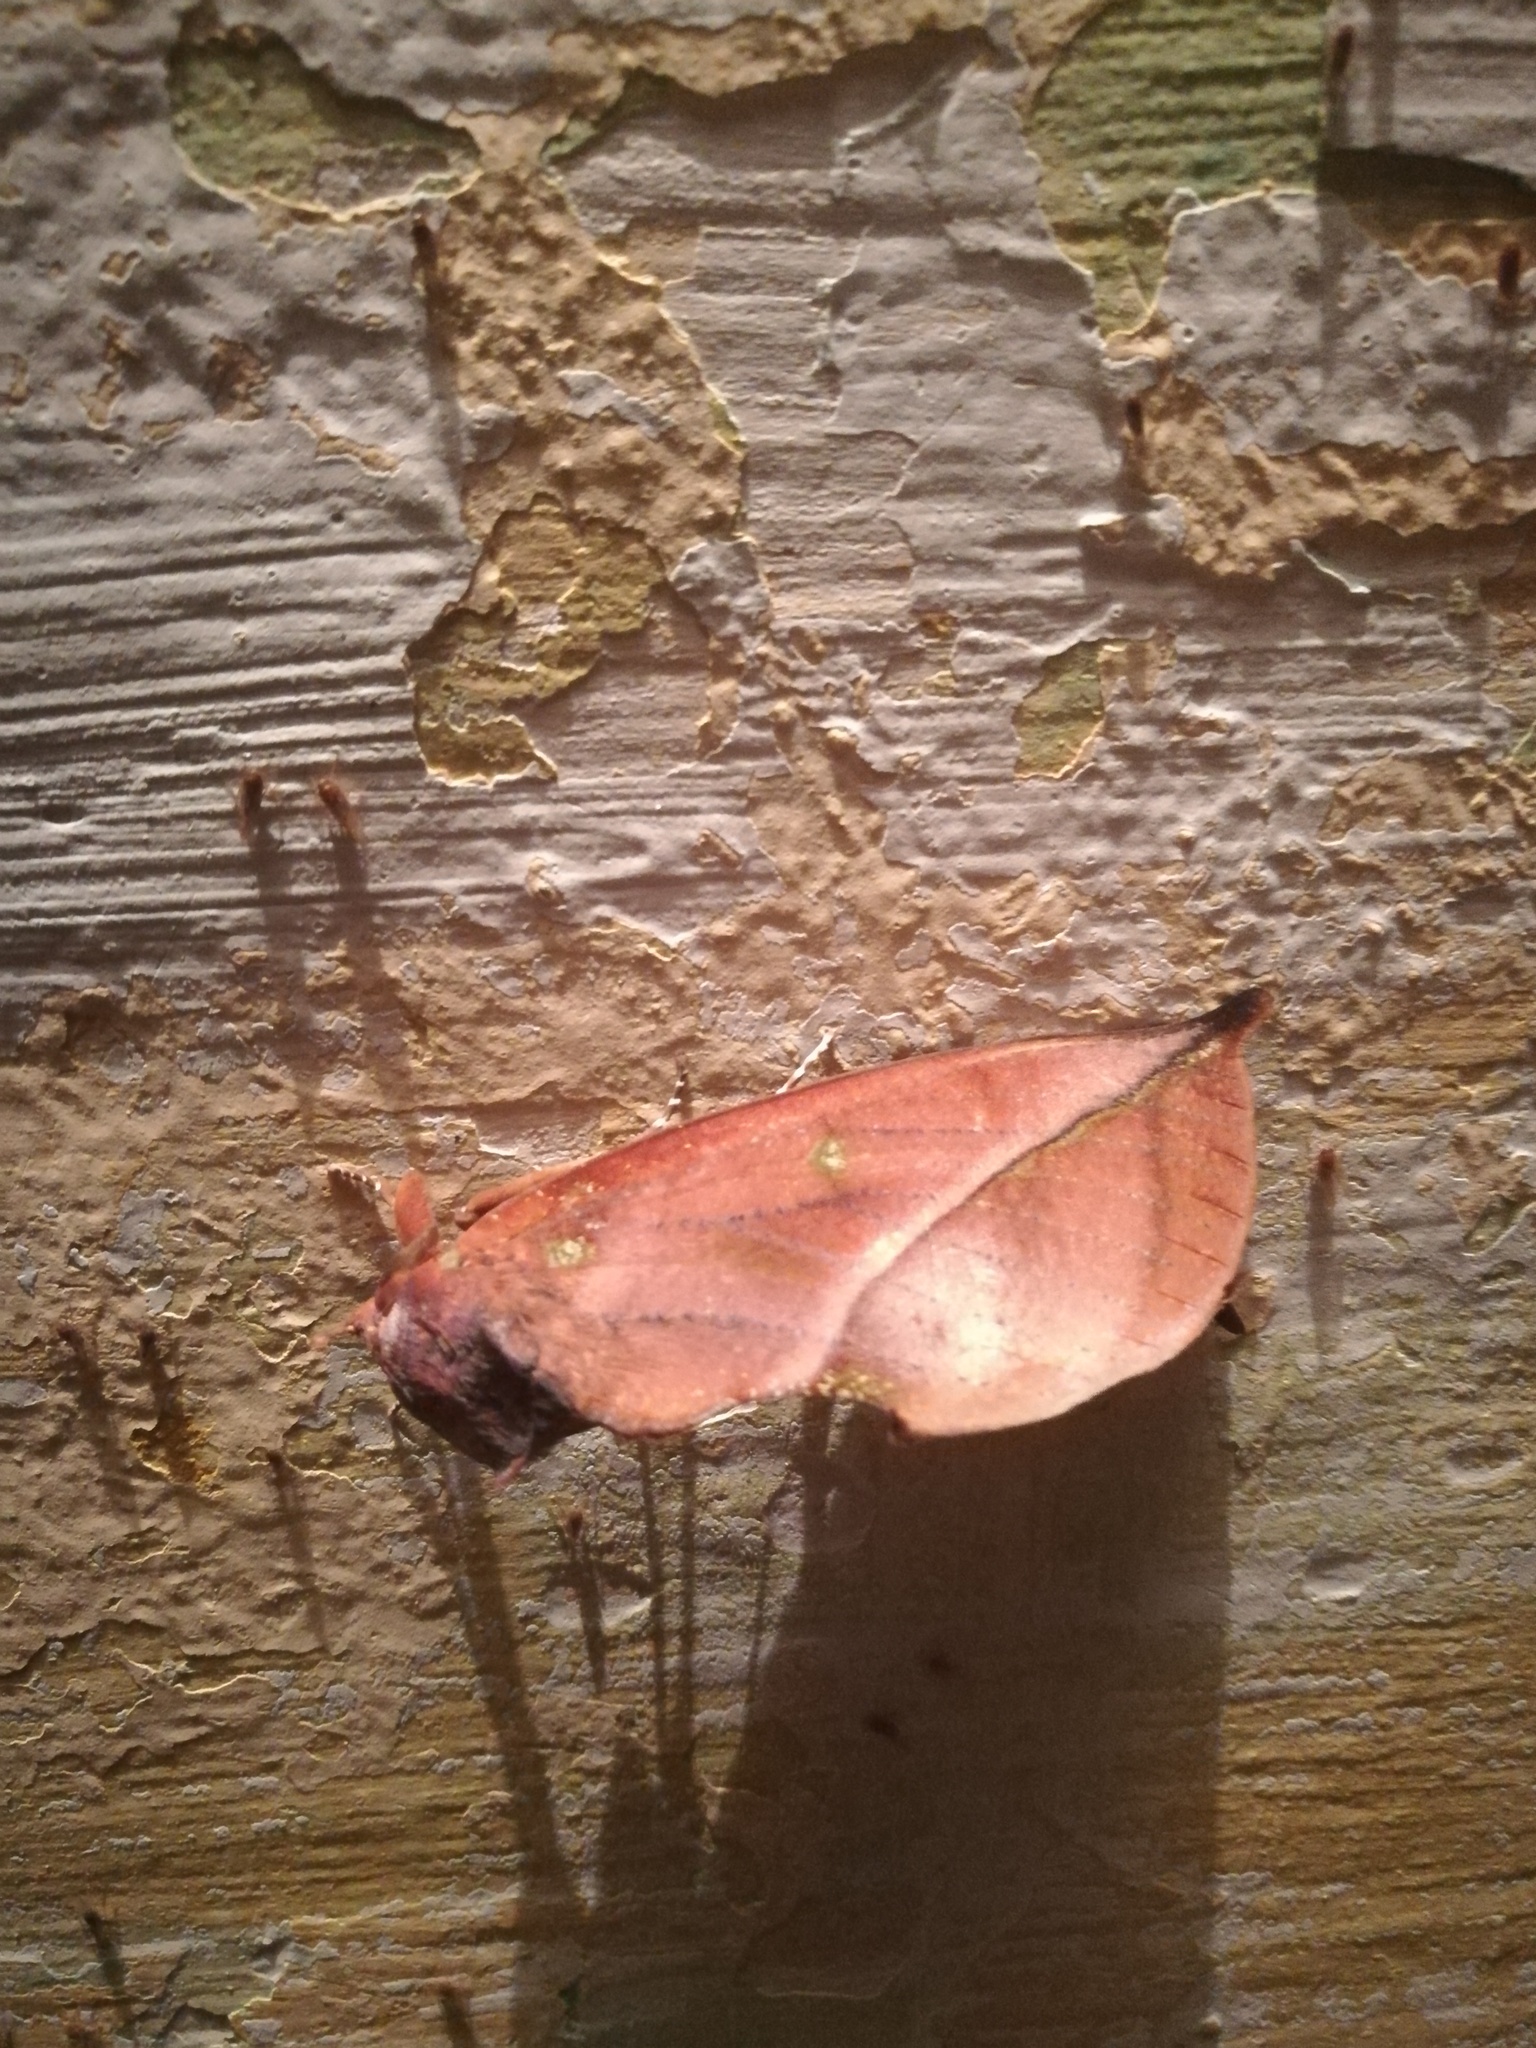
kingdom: Animalia
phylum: Arthropoda
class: Insecta
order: Lepidoptera
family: Erebidae
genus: Eudocima
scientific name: Eudocima aurantia
